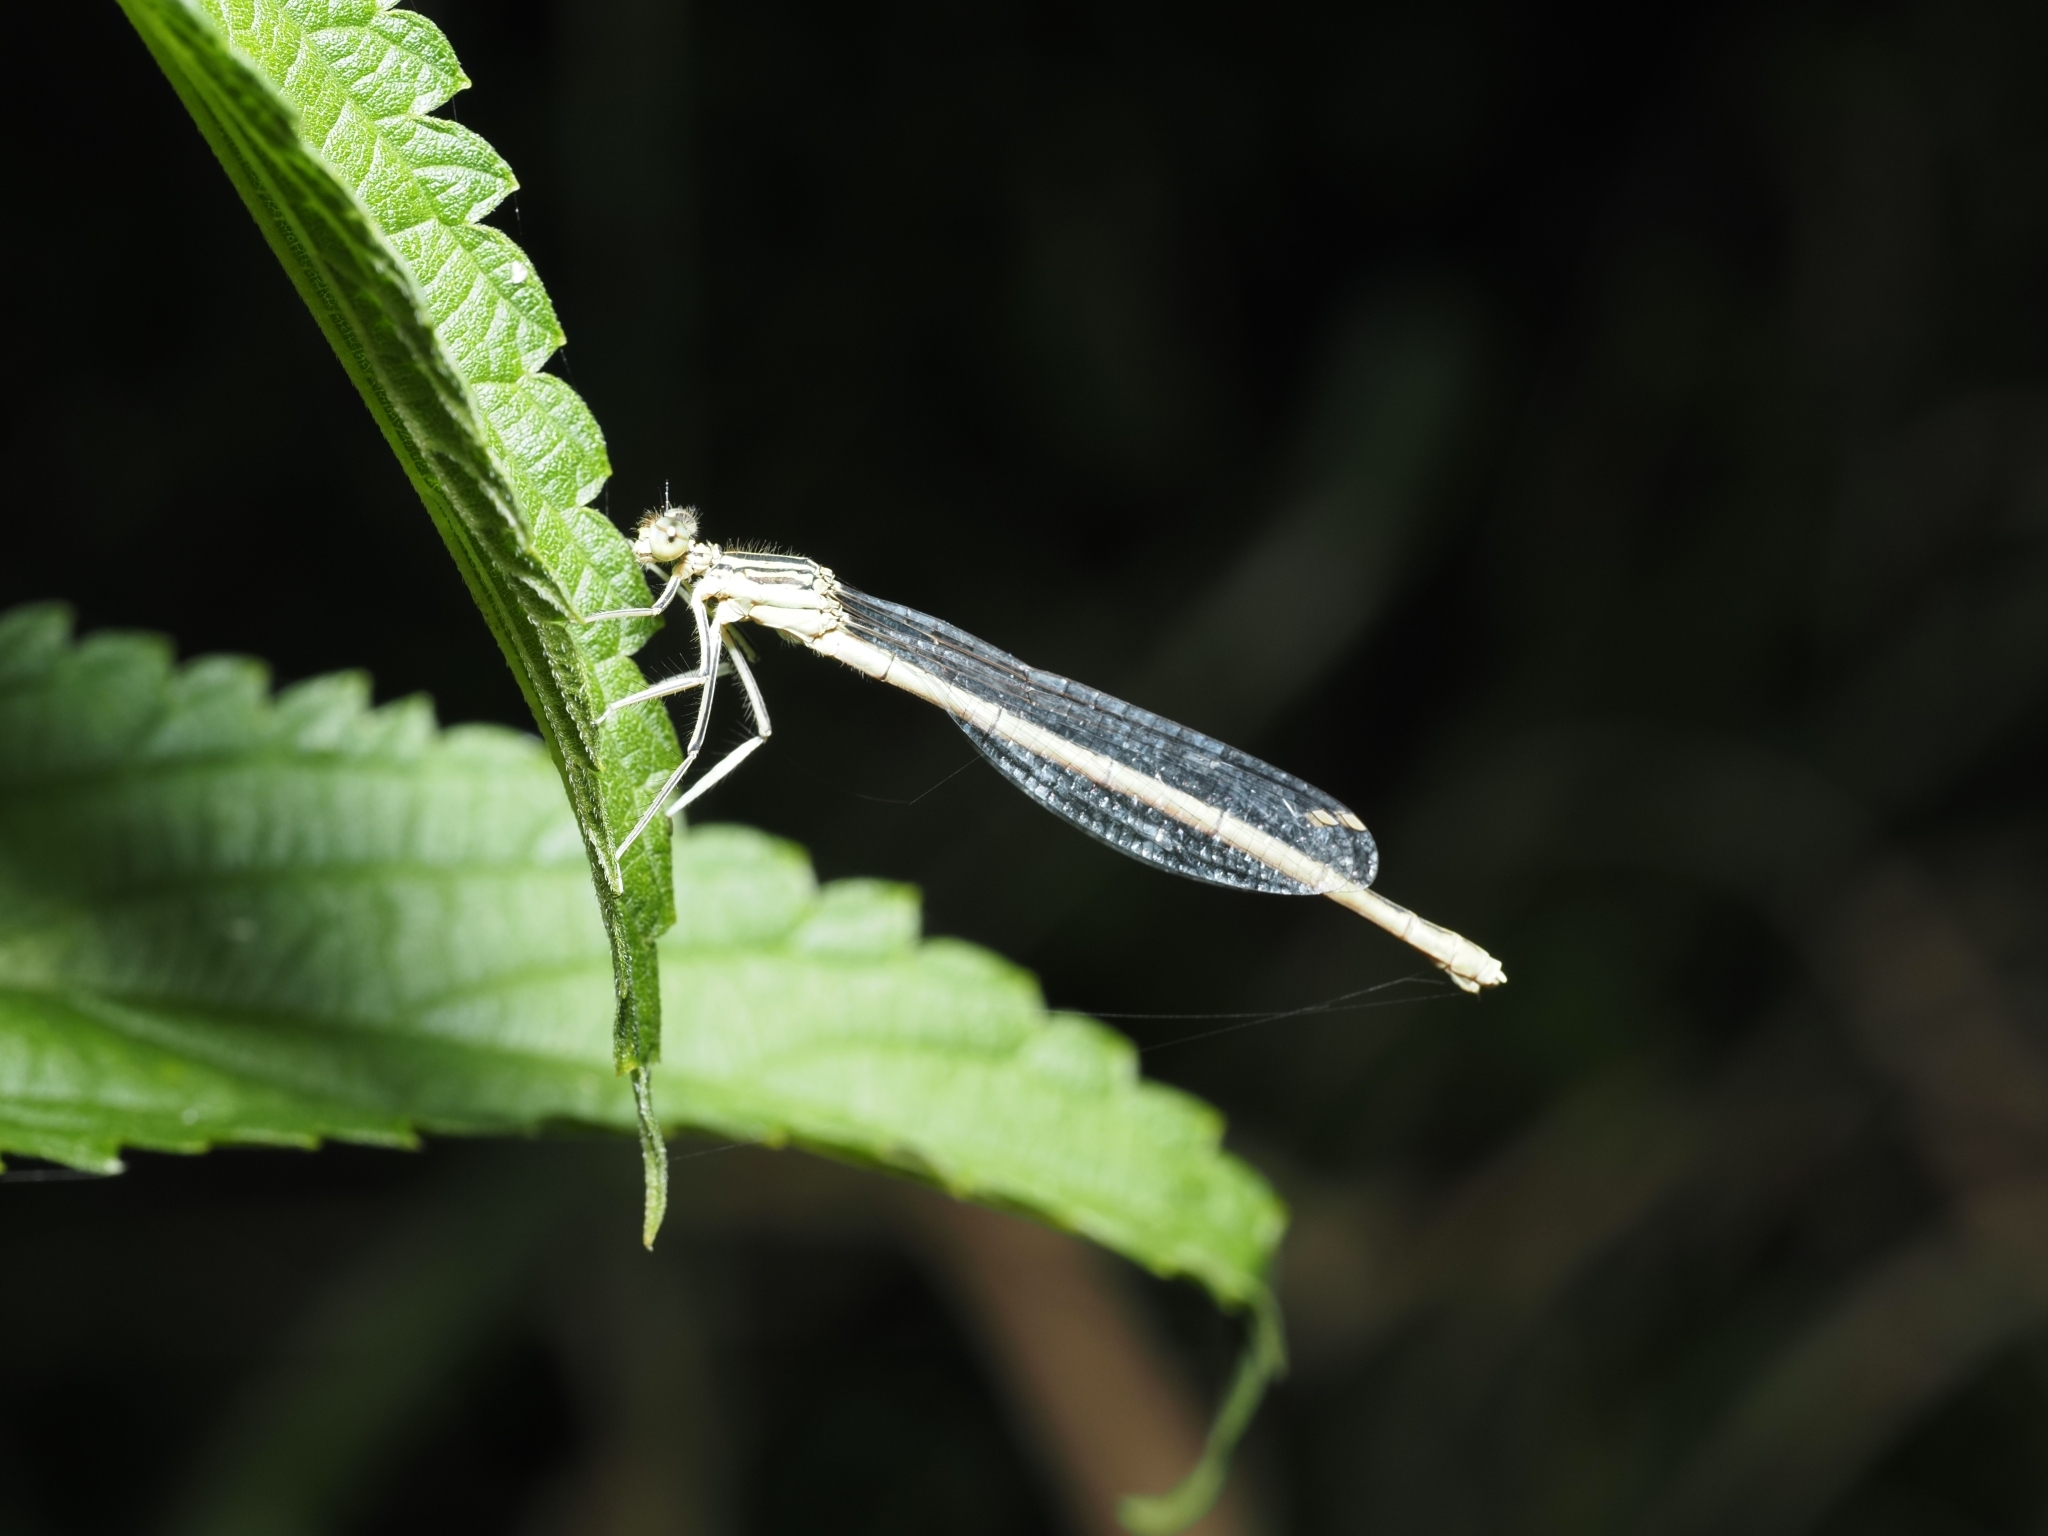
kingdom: Animalia
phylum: Arthropoda
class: Insecta
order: Odonata
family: Platycnemididae
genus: Platycnemis
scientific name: Platycnemis pennipes
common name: White-legged damselfly
